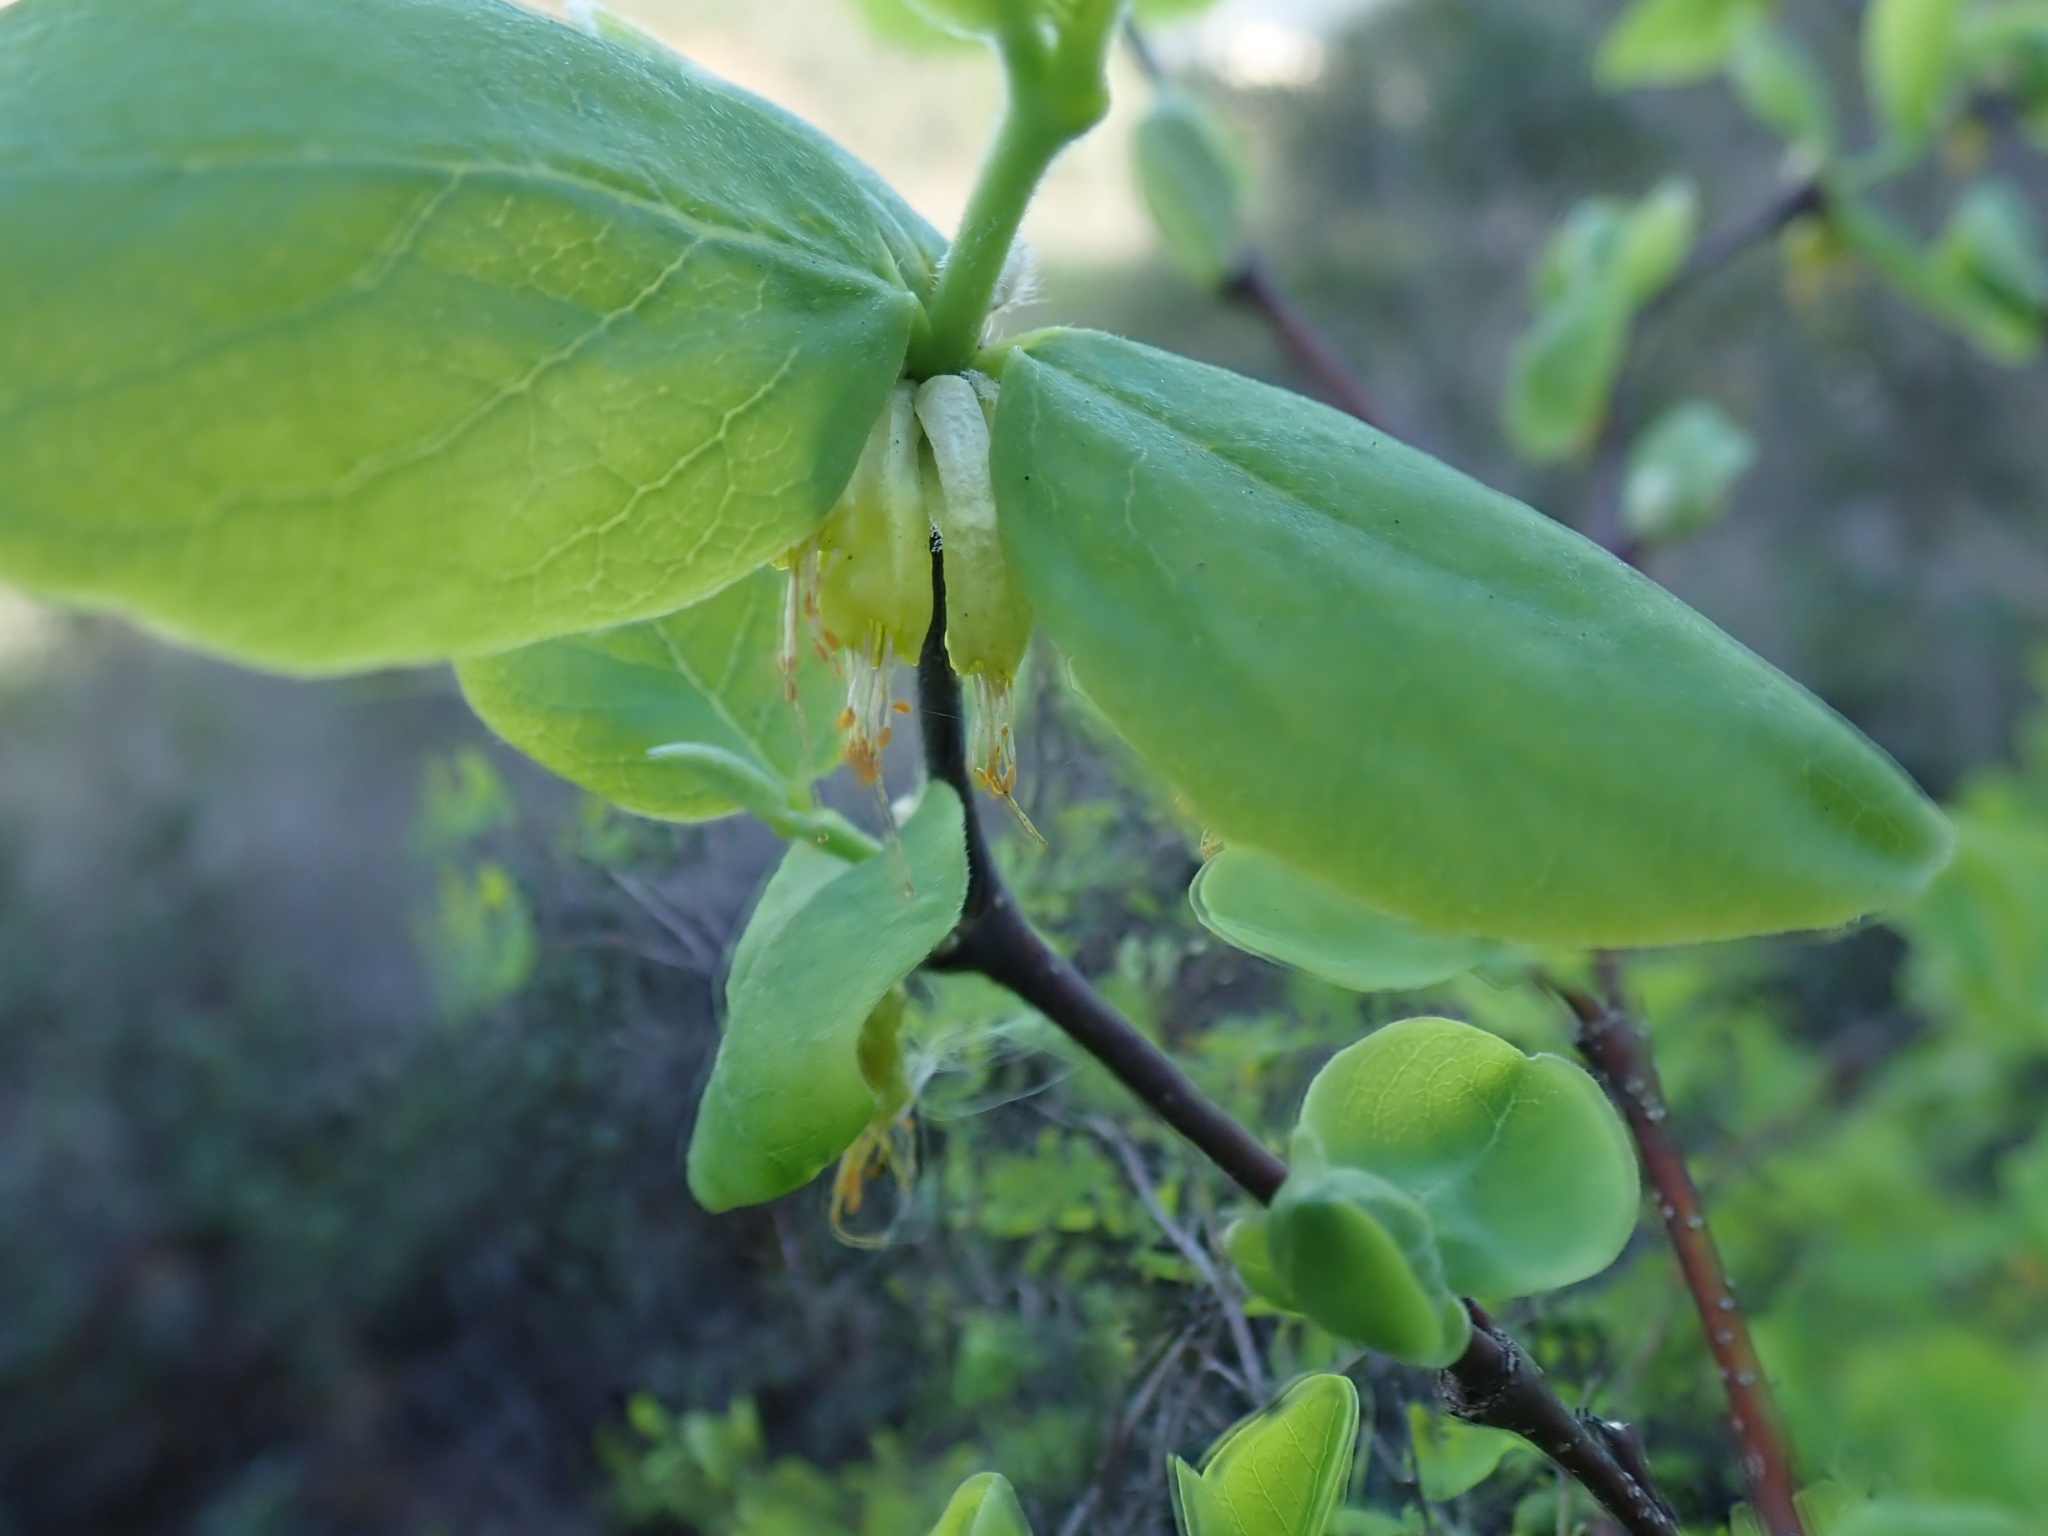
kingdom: Plantae
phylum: Tracheophyta
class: Magnoliopsida
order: Malvales
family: Thymelaeaceae
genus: Dirca
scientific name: Dirca occidentalis
